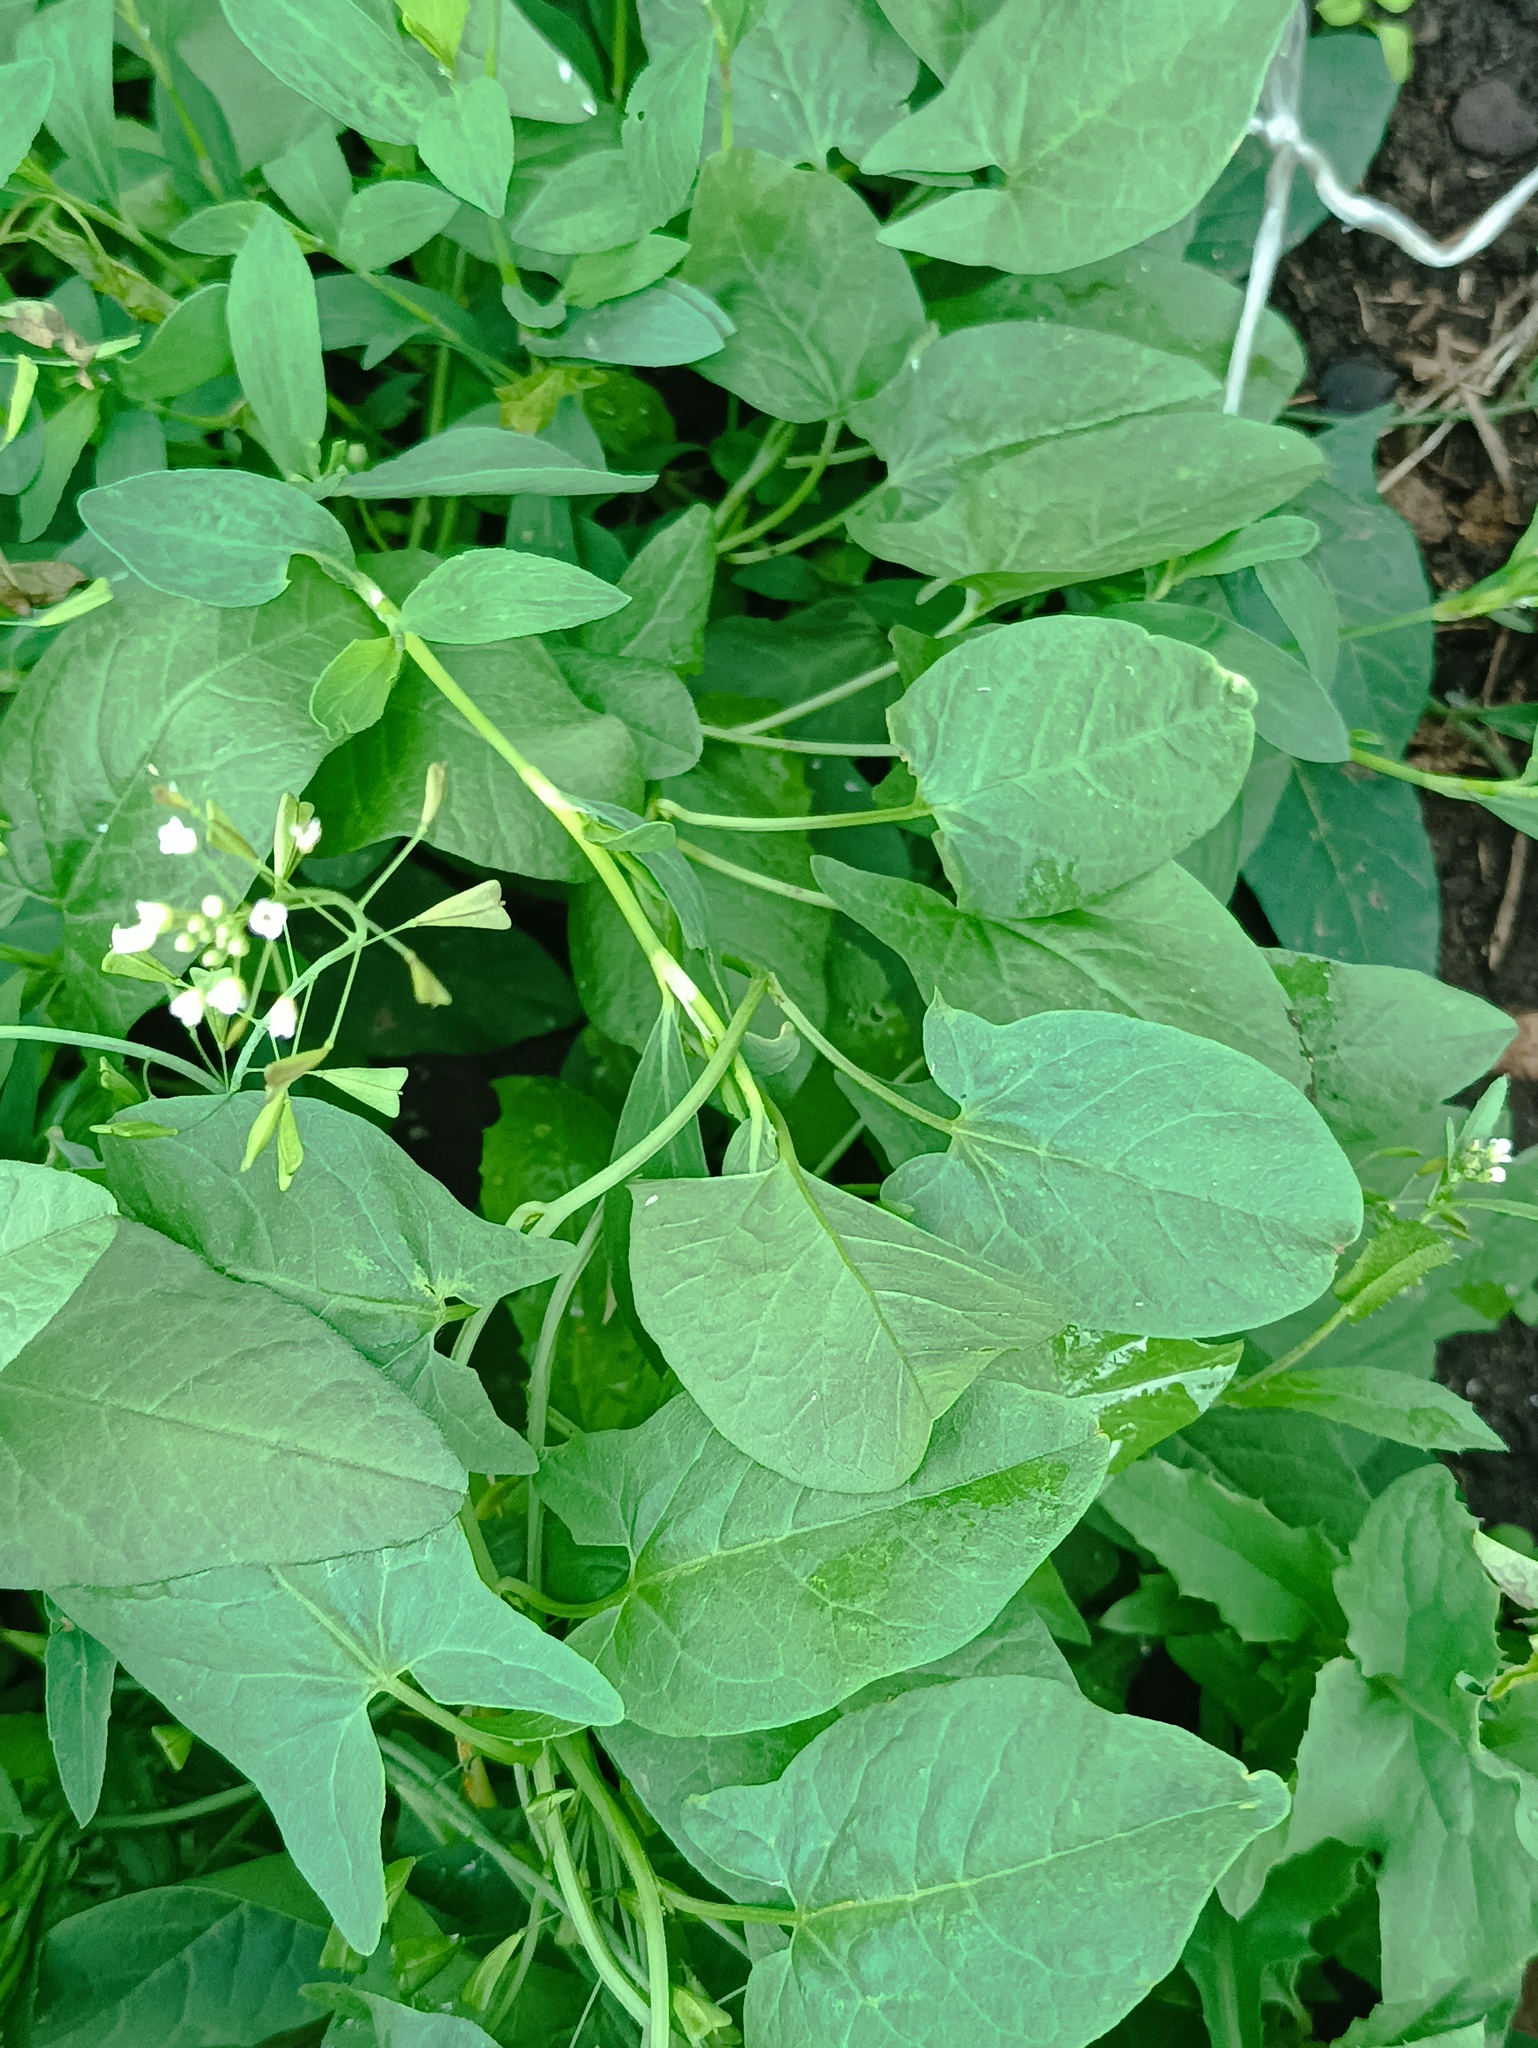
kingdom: Plantae
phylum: Tracheophyta
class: Magnoliopsida
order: Solanales
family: Convolvulaceae
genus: Convolvulus
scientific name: Convolvulus arvensis
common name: Field bindweed
